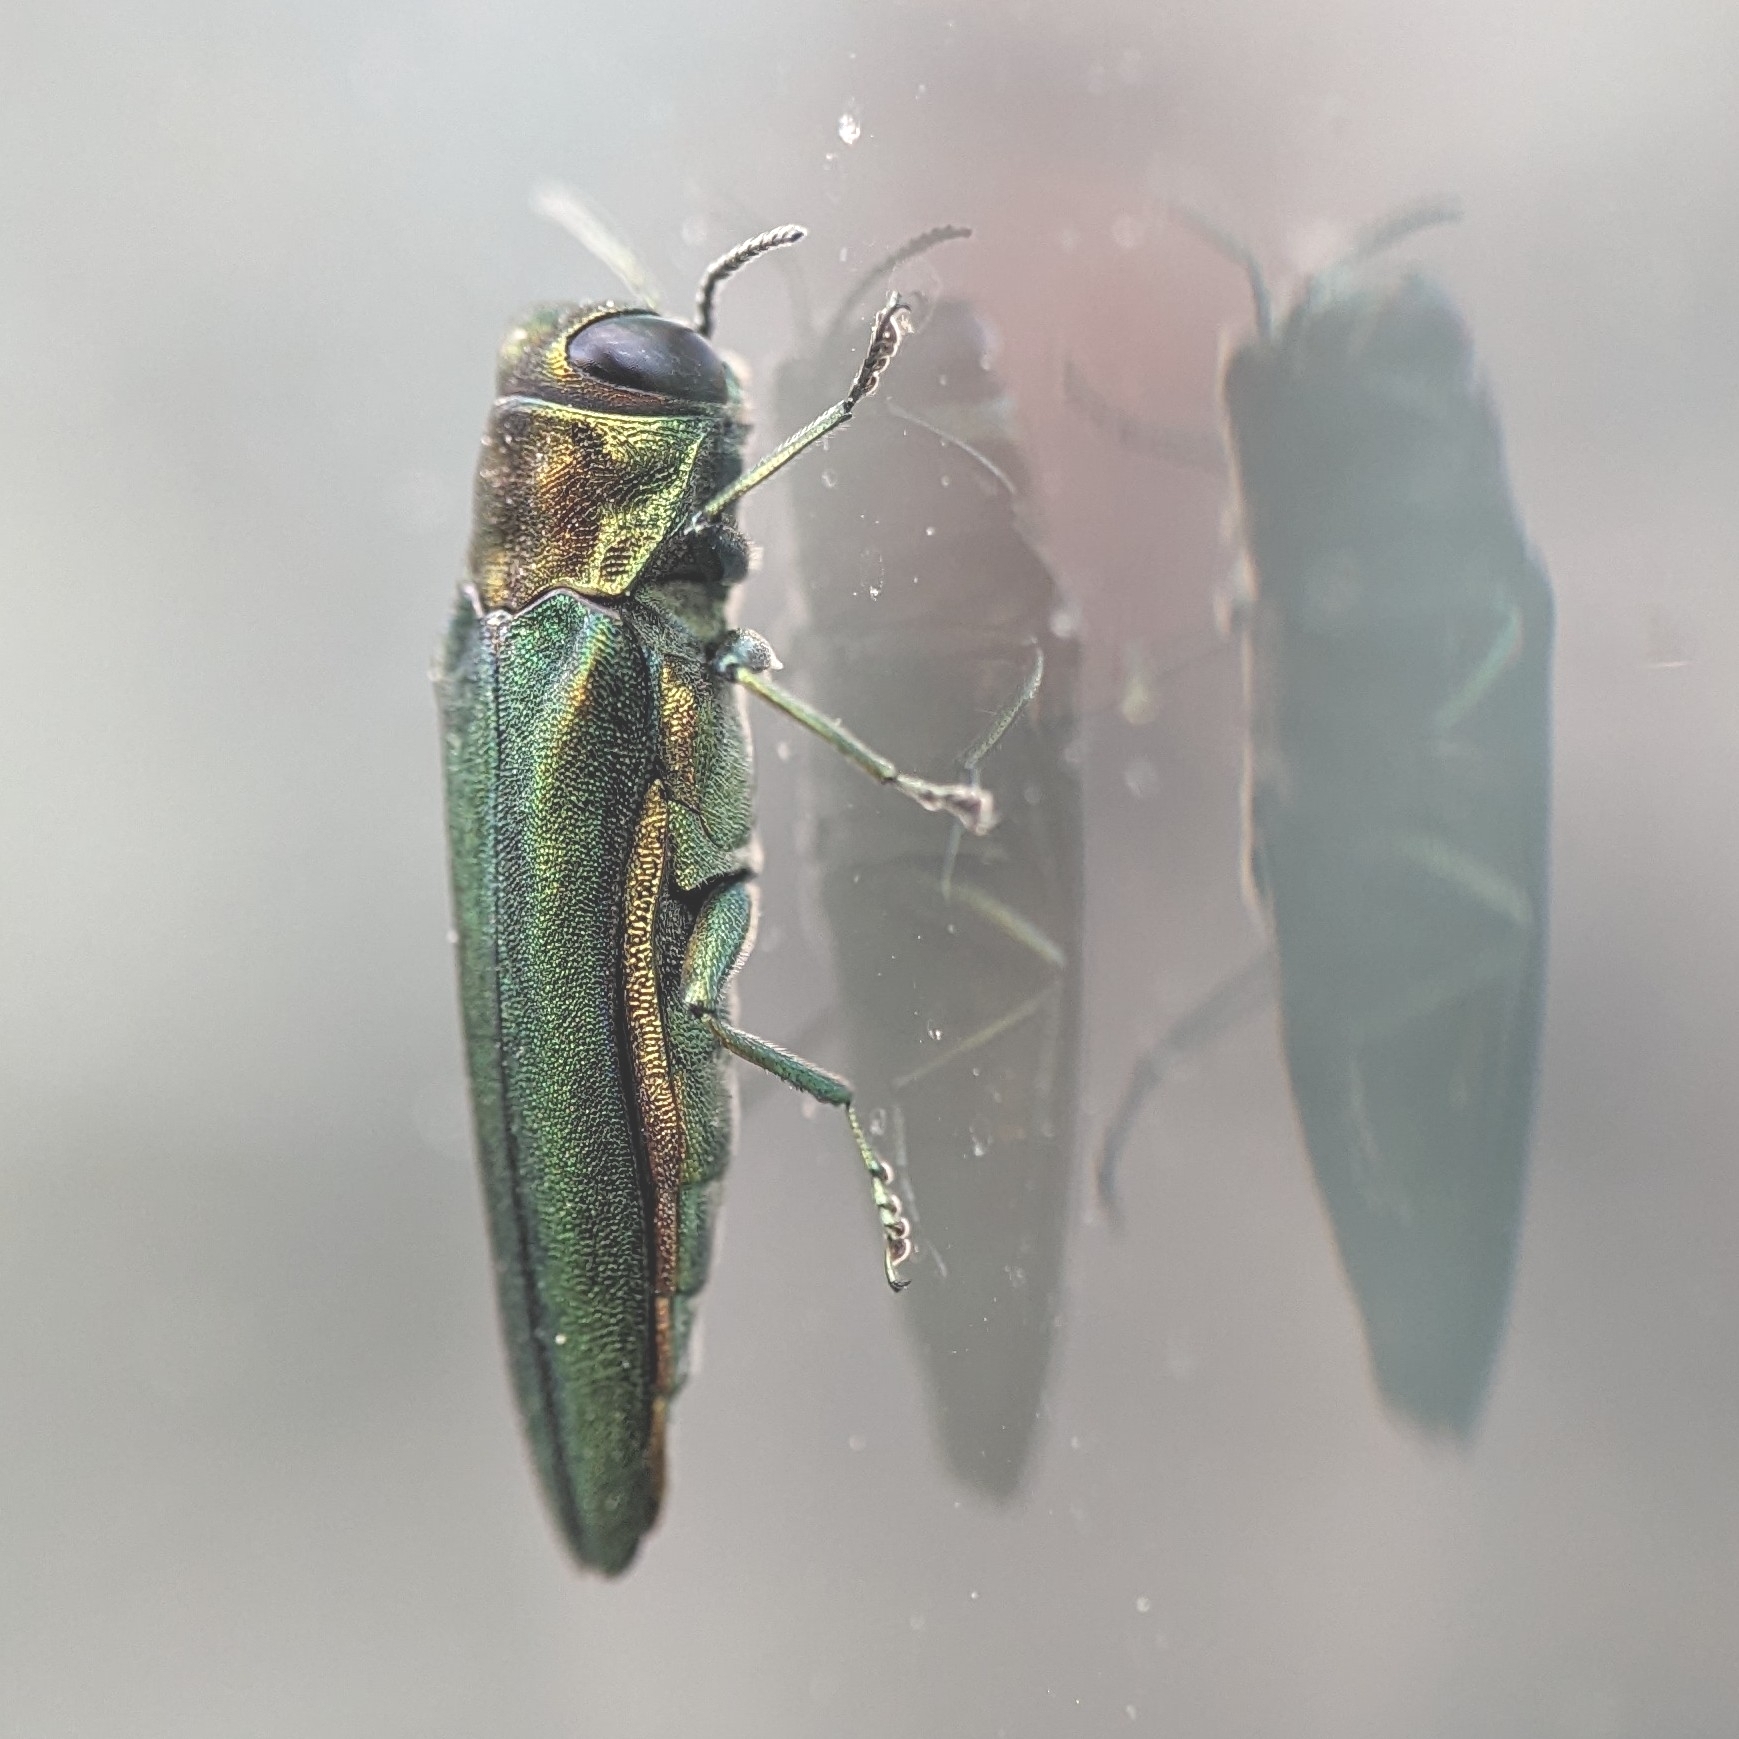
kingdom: Animalia
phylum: Arthropoda
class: Insecta
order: Coleoptera
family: Buprestidae
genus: Agrilus
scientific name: Agrilus planipennis
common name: Emerald ash borer
